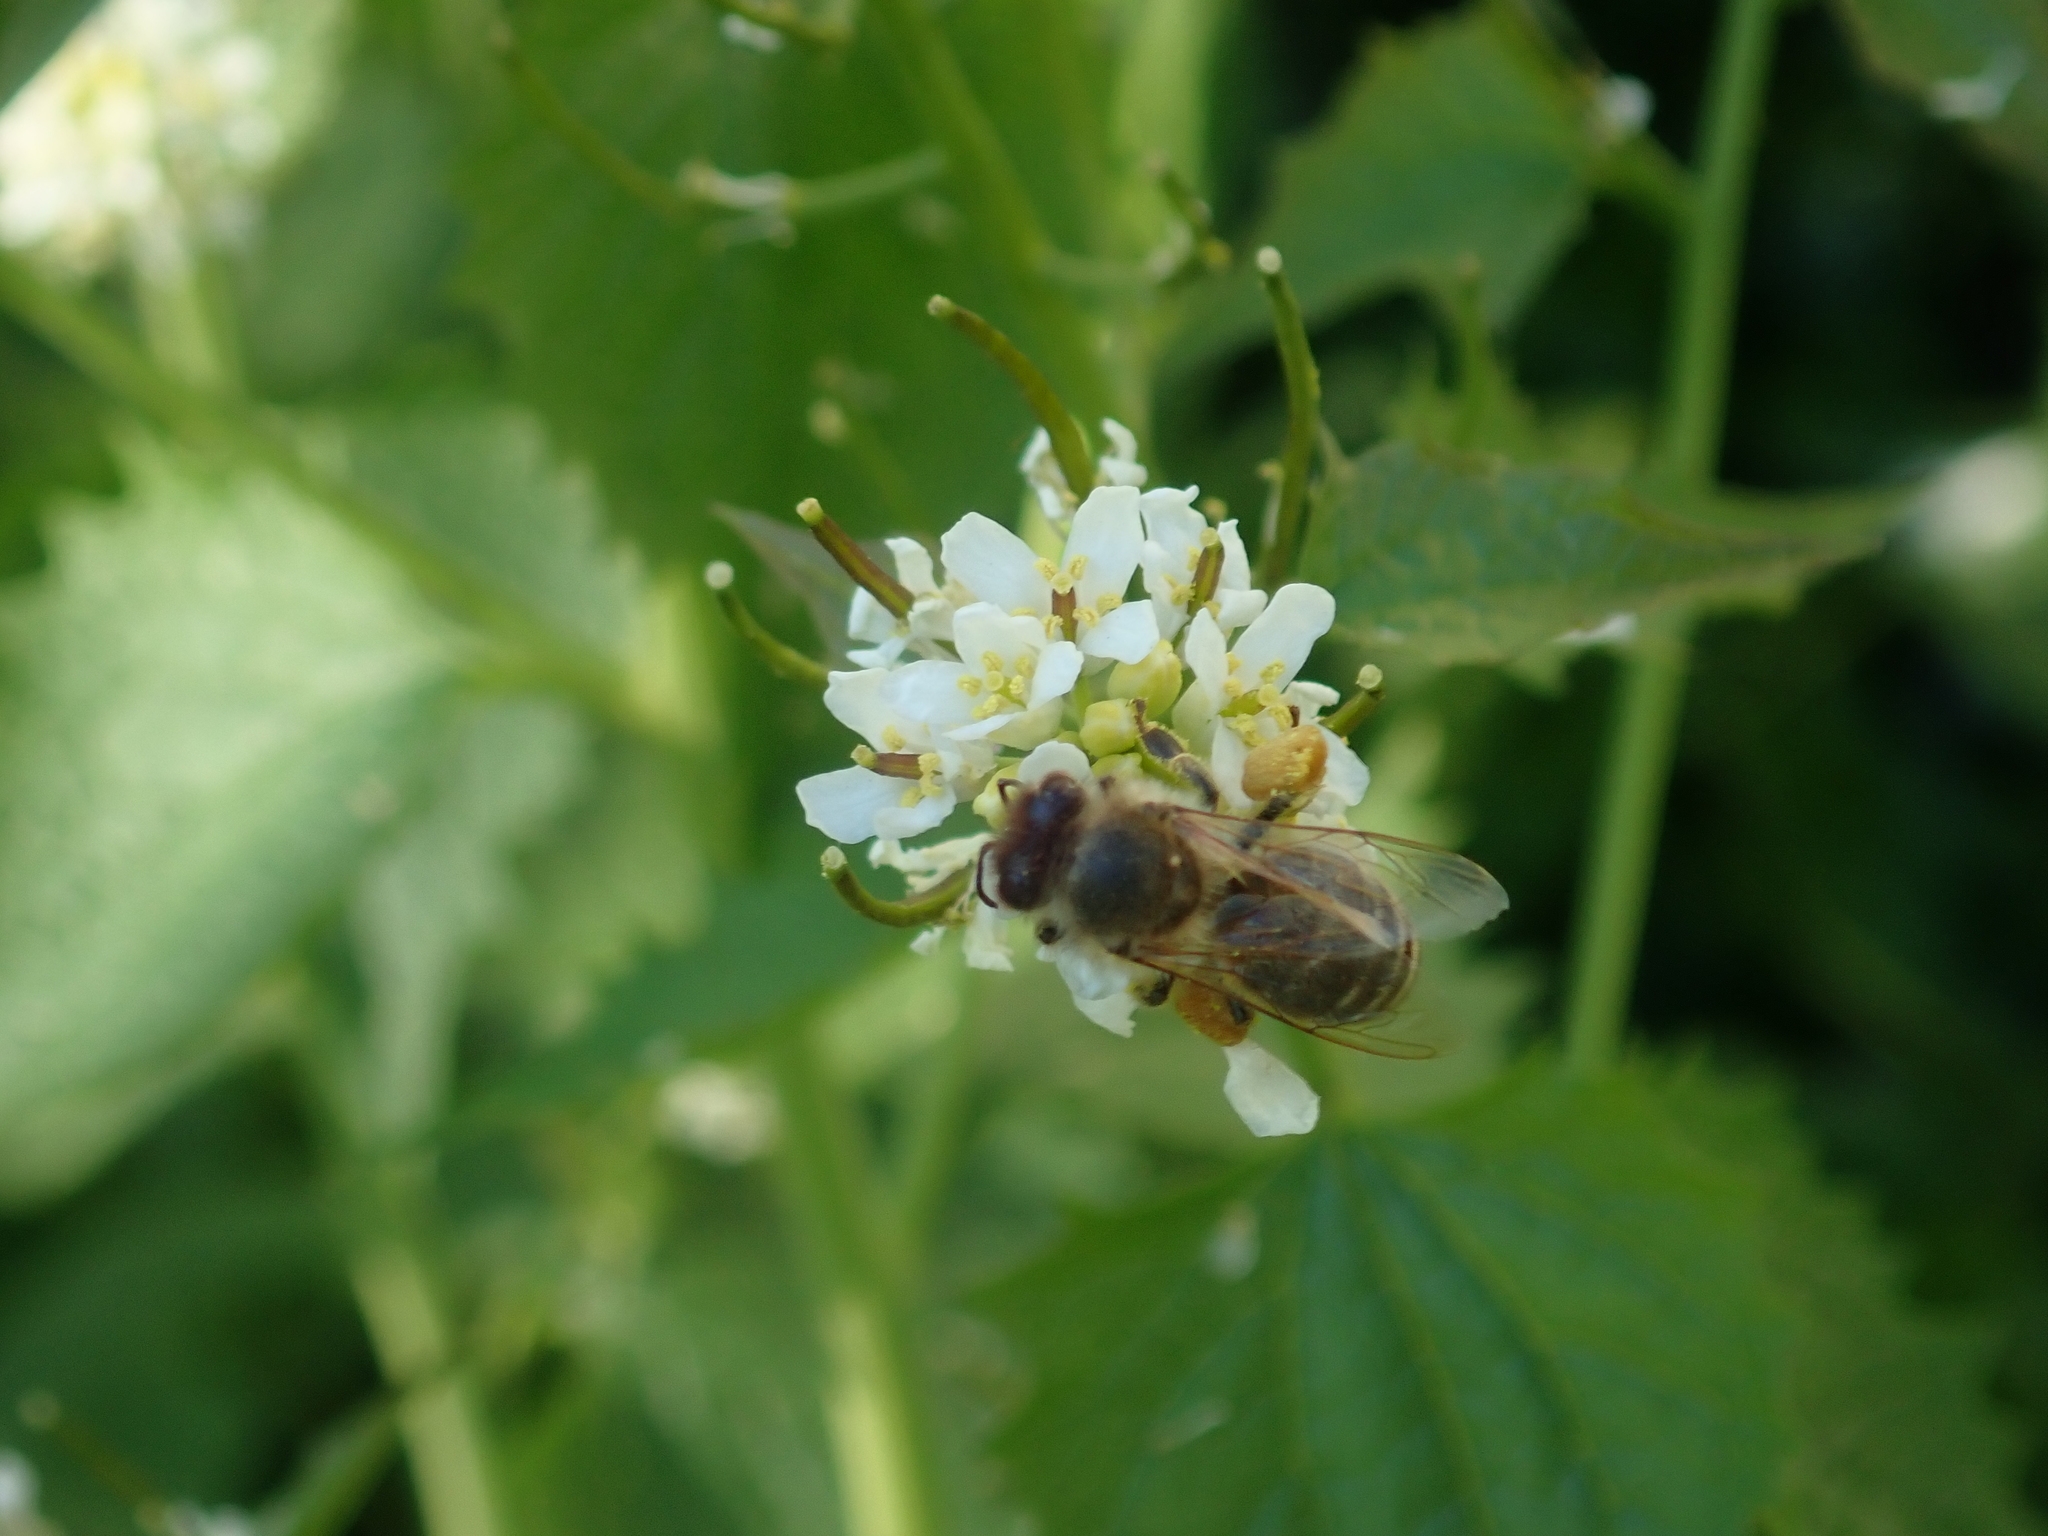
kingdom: Animalia
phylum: Arthropoda
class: Insecta
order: Hymenoptera
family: Apidae
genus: Apis
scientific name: Apis mellifera
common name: Honey bee
